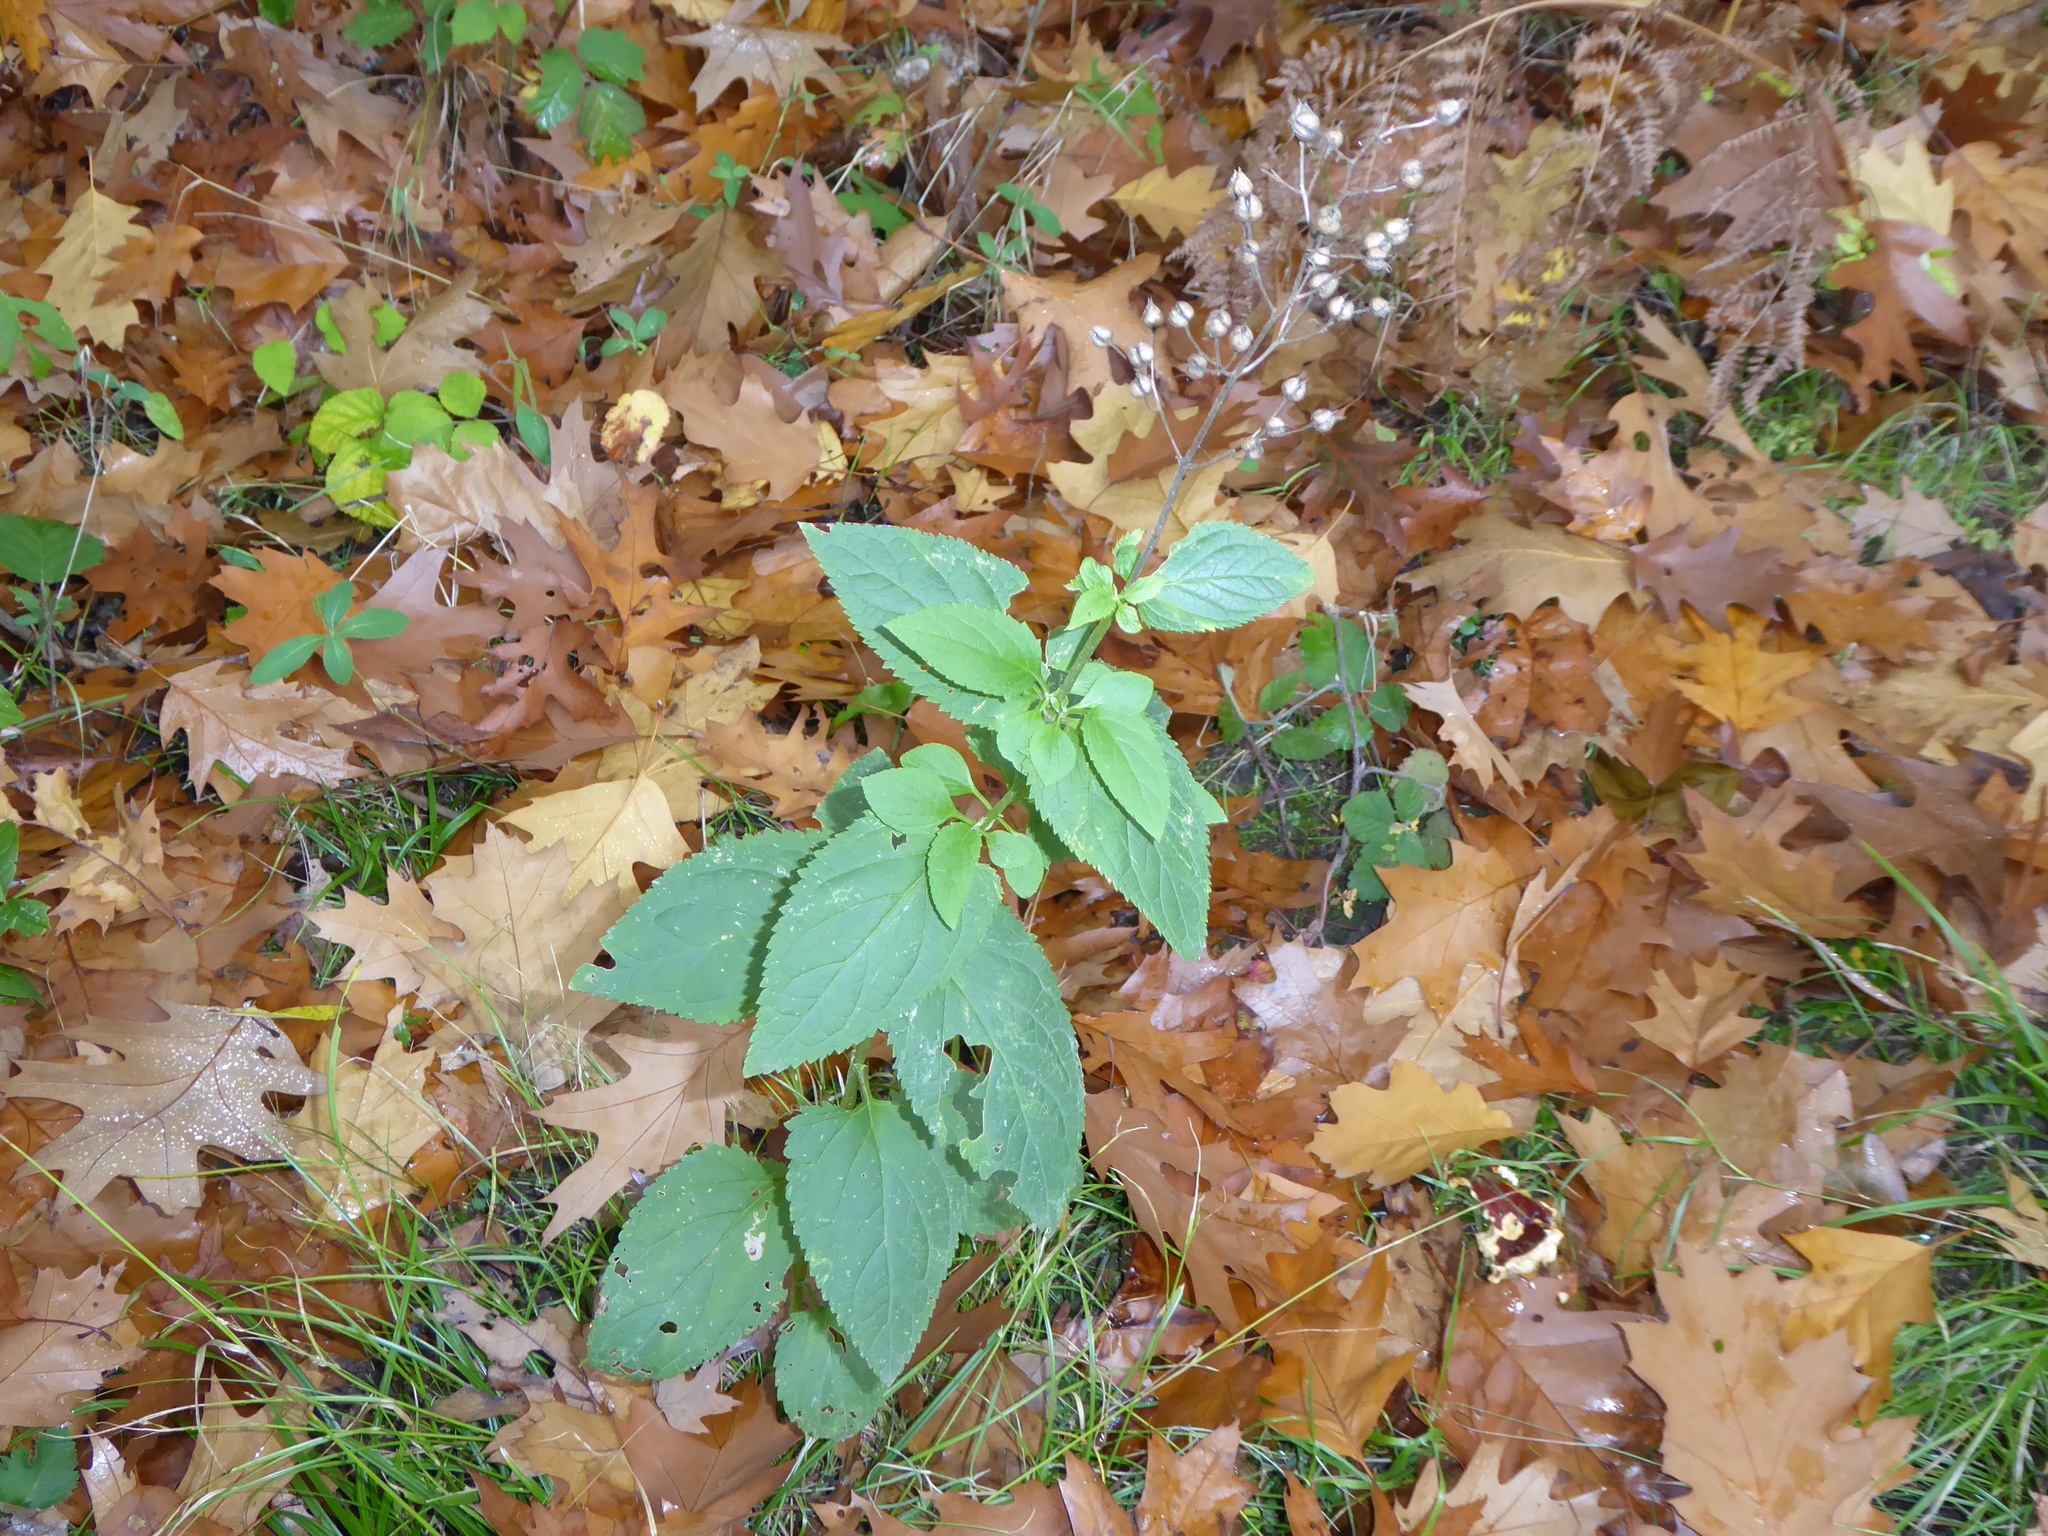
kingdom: Plantae
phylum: Tracheophyta
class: Magnoliopsida
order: Lamiales
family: Scrophulariaceae
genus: Scrophularia
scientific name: Scrophularia nodosa
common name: Common figwort
